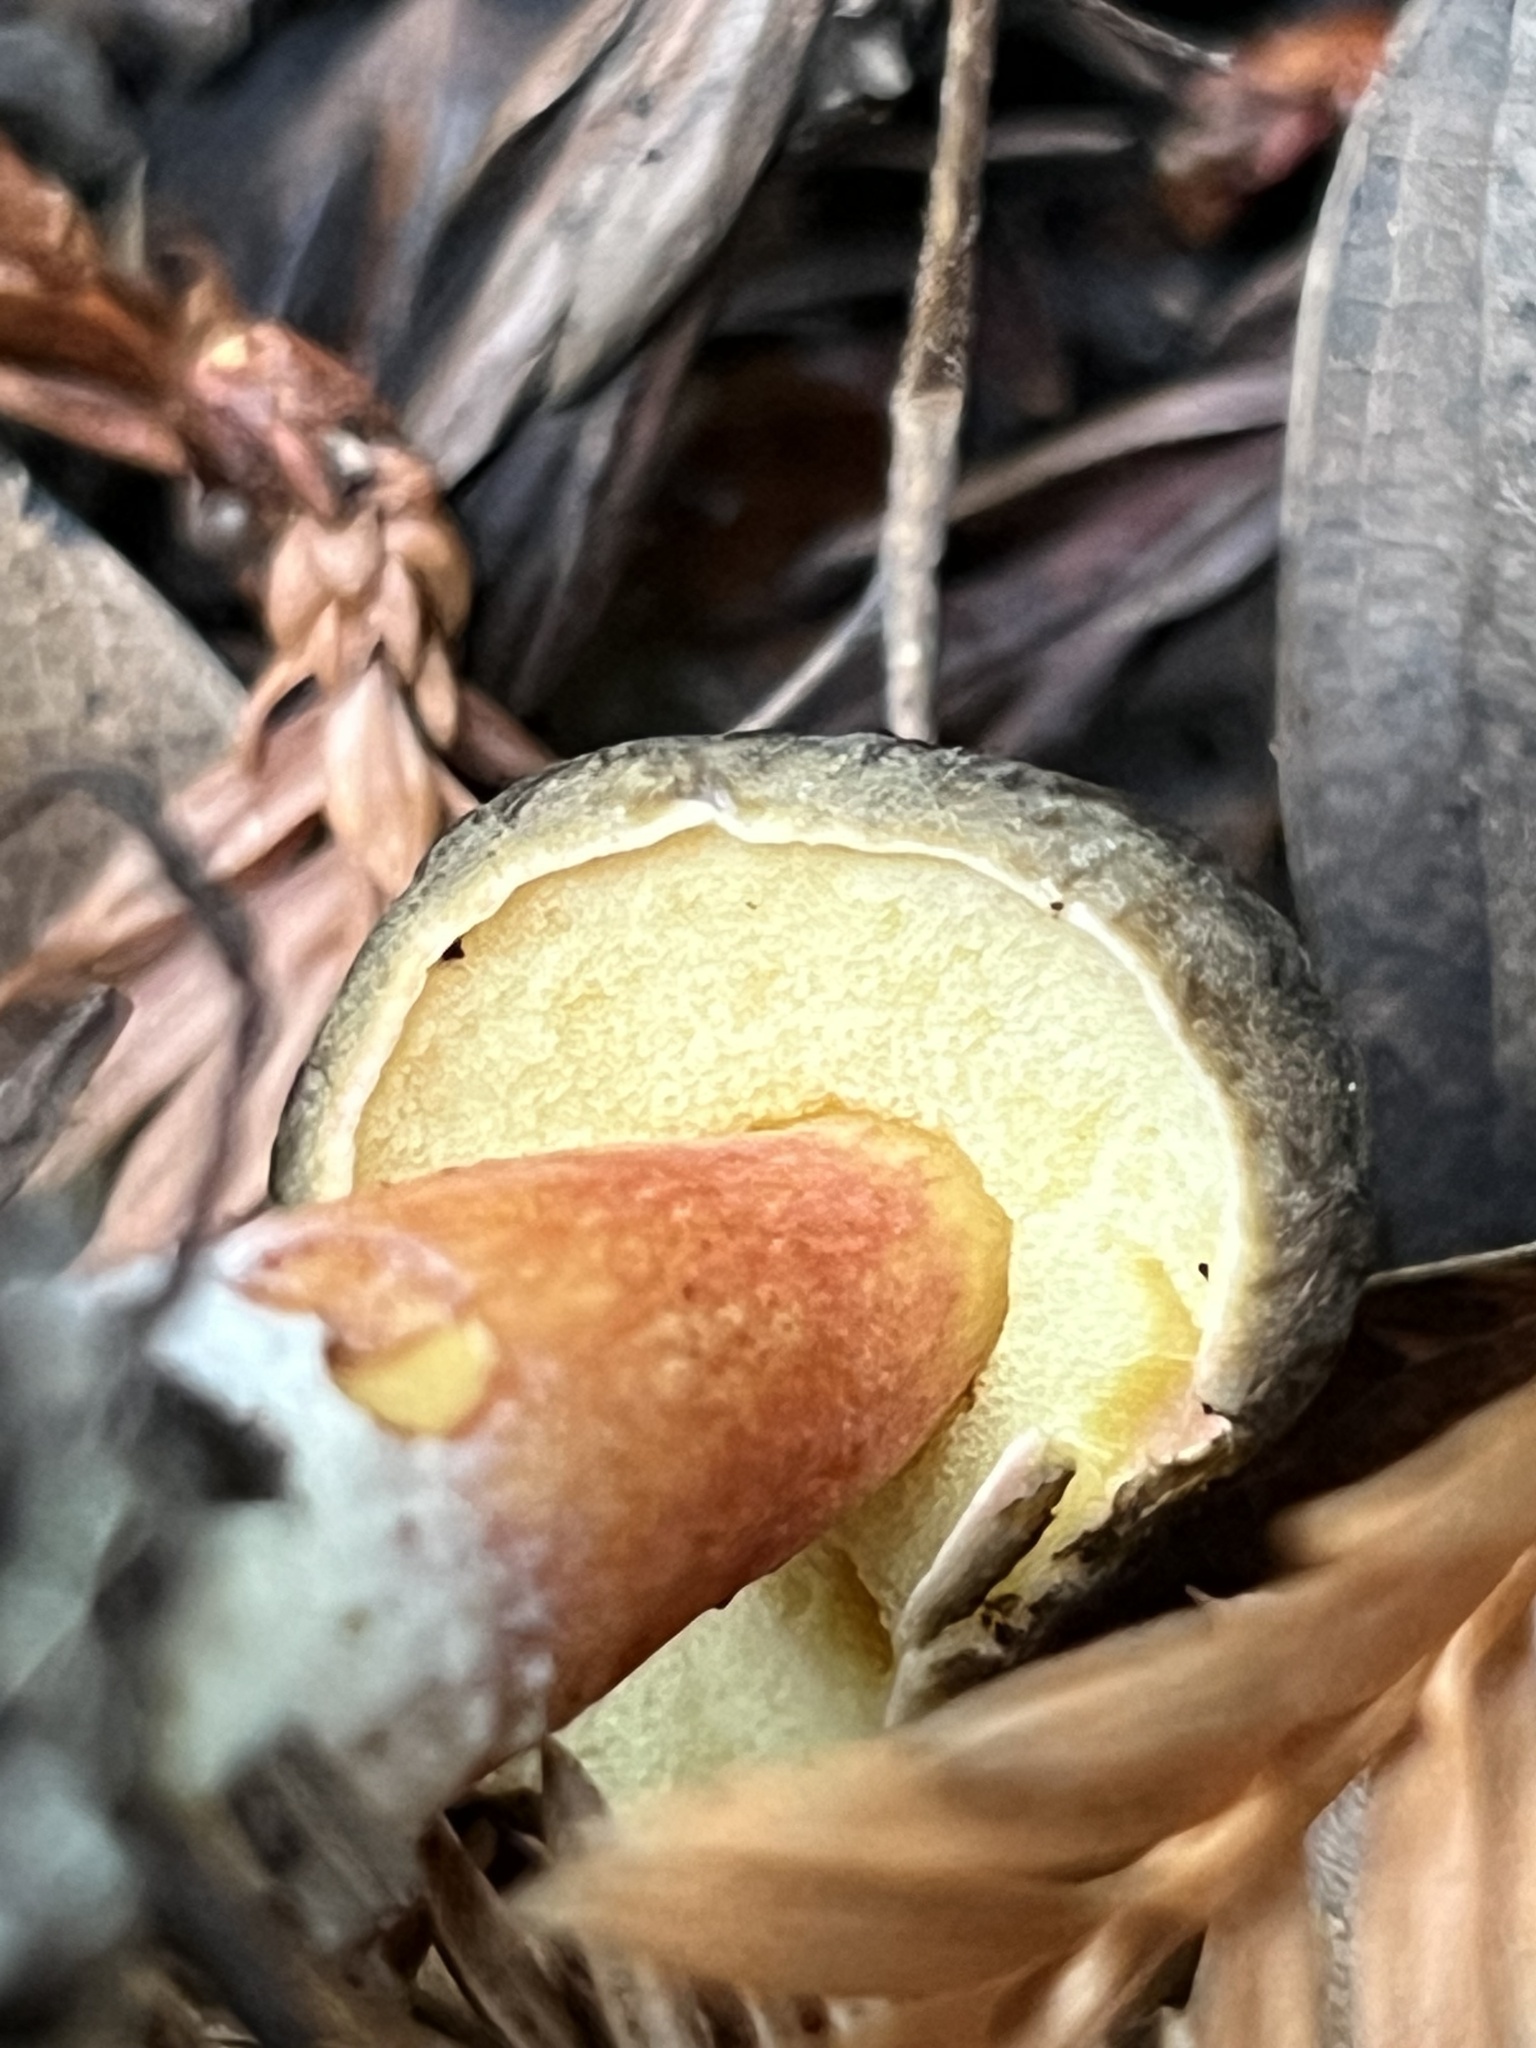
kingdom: Fungi
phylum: Basidiomycota
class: Agaricomycetes
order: Boletales
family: Boletaceae
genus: Xerocomellus
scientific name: Xerocomellus atropurpureus
